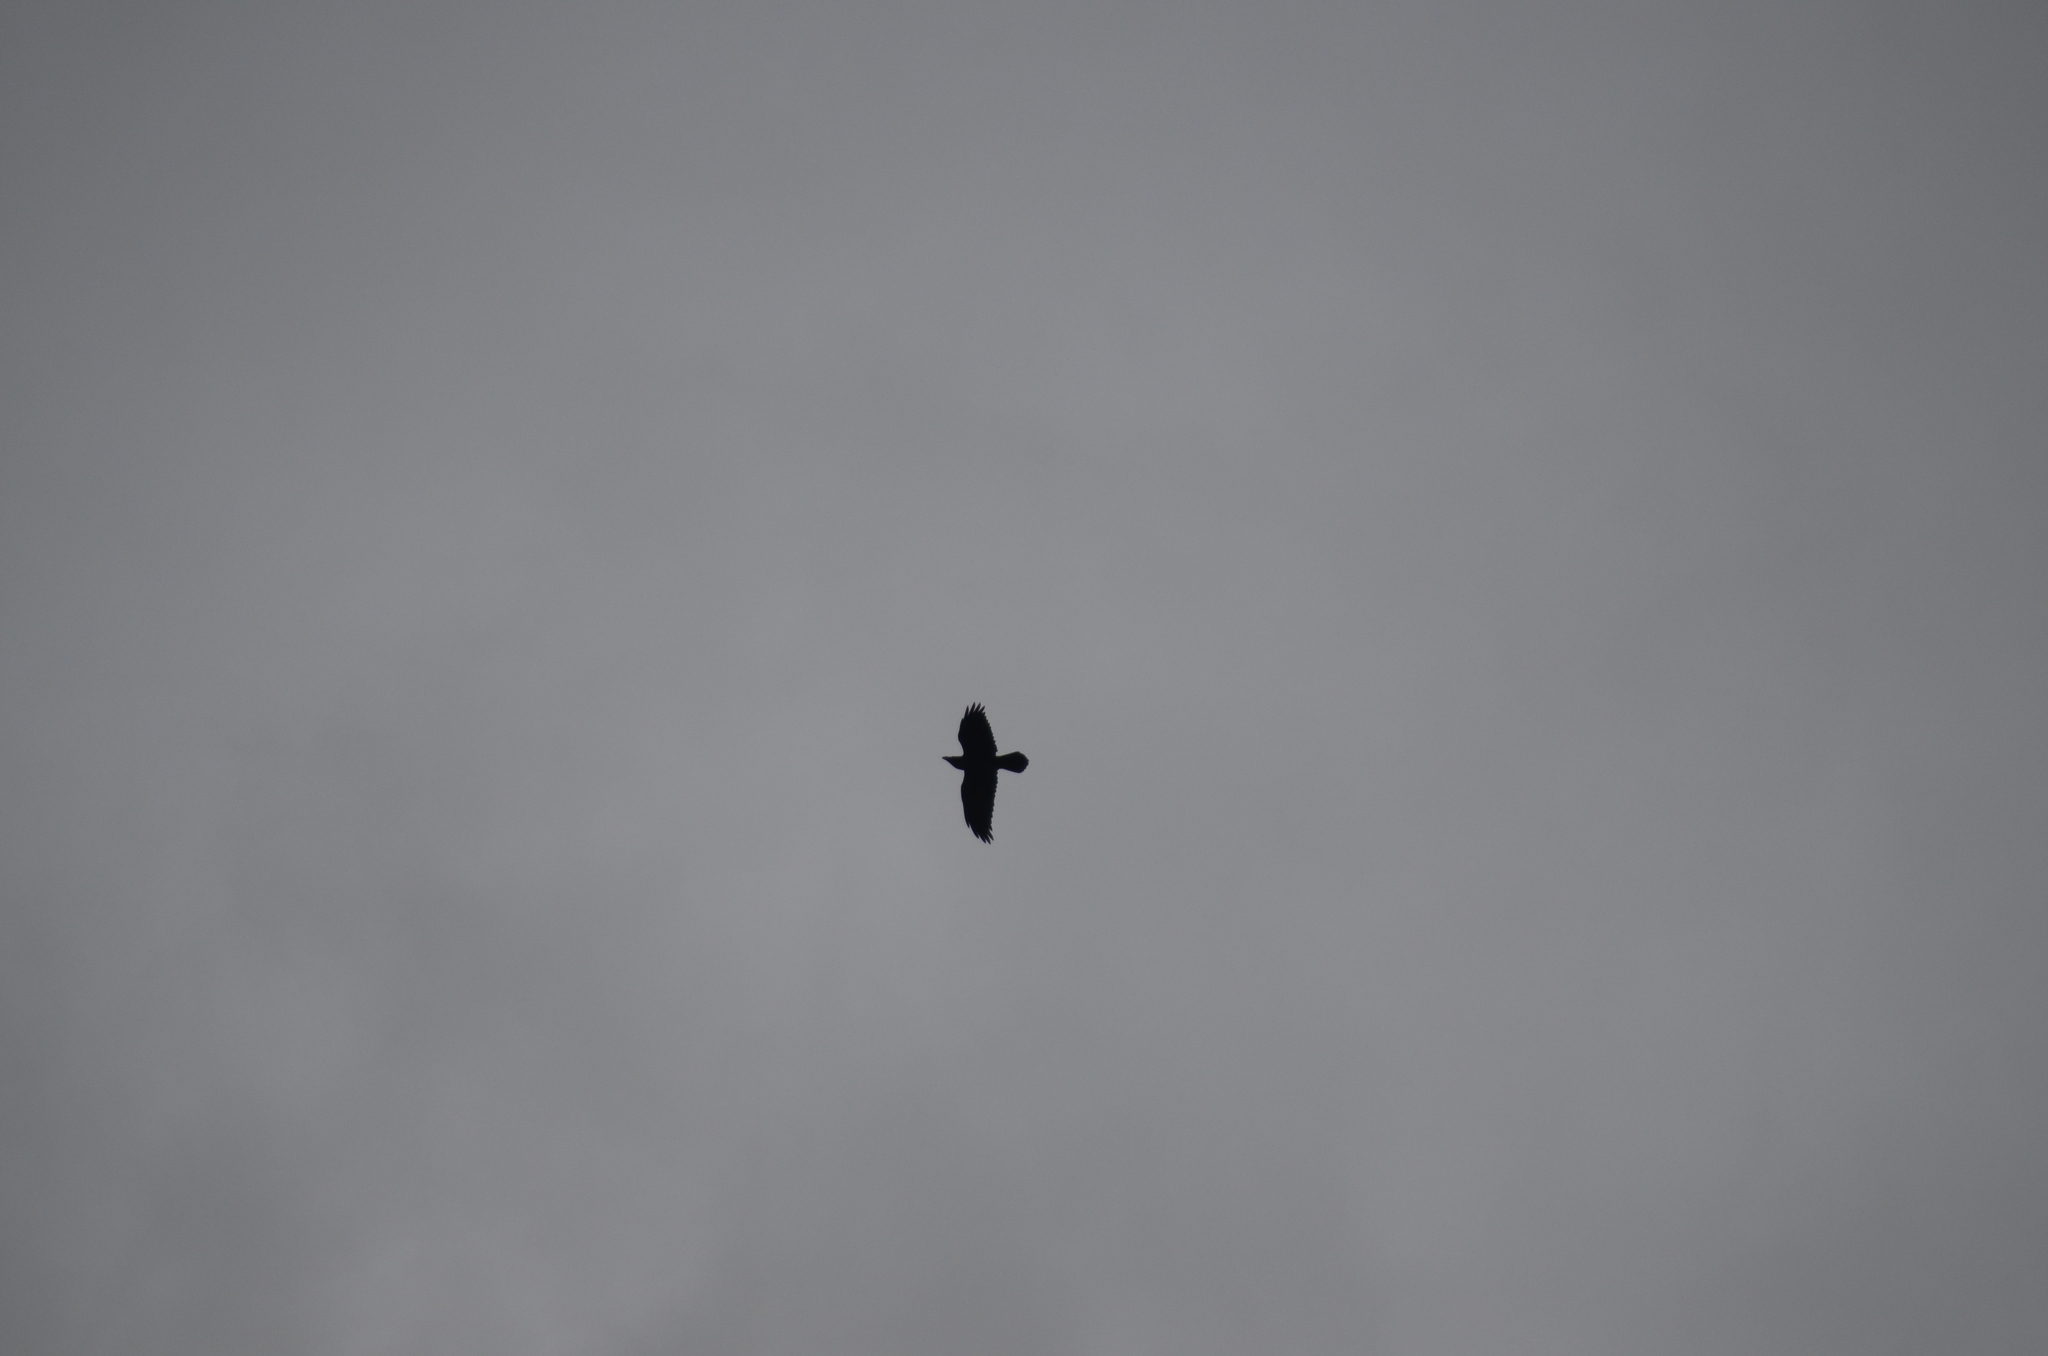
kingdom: Animalia
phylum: Chordata
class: Aves
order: Passeriformes
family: Corvidae
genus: Corvus
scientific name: Corvus corax
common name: Common raven
